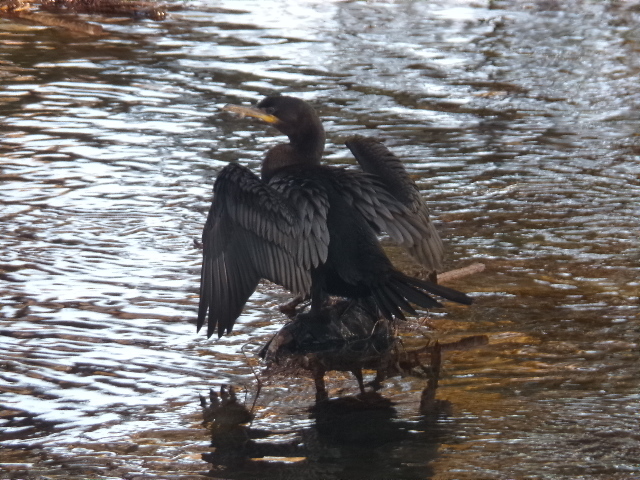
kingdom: Animalia
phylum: Chordata
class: Aves
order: Suliformes
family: Phalacrocoracidae
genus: Phalacrocorax
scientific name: Phalacrocorax brasilianus
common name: Neotropic cormorant
